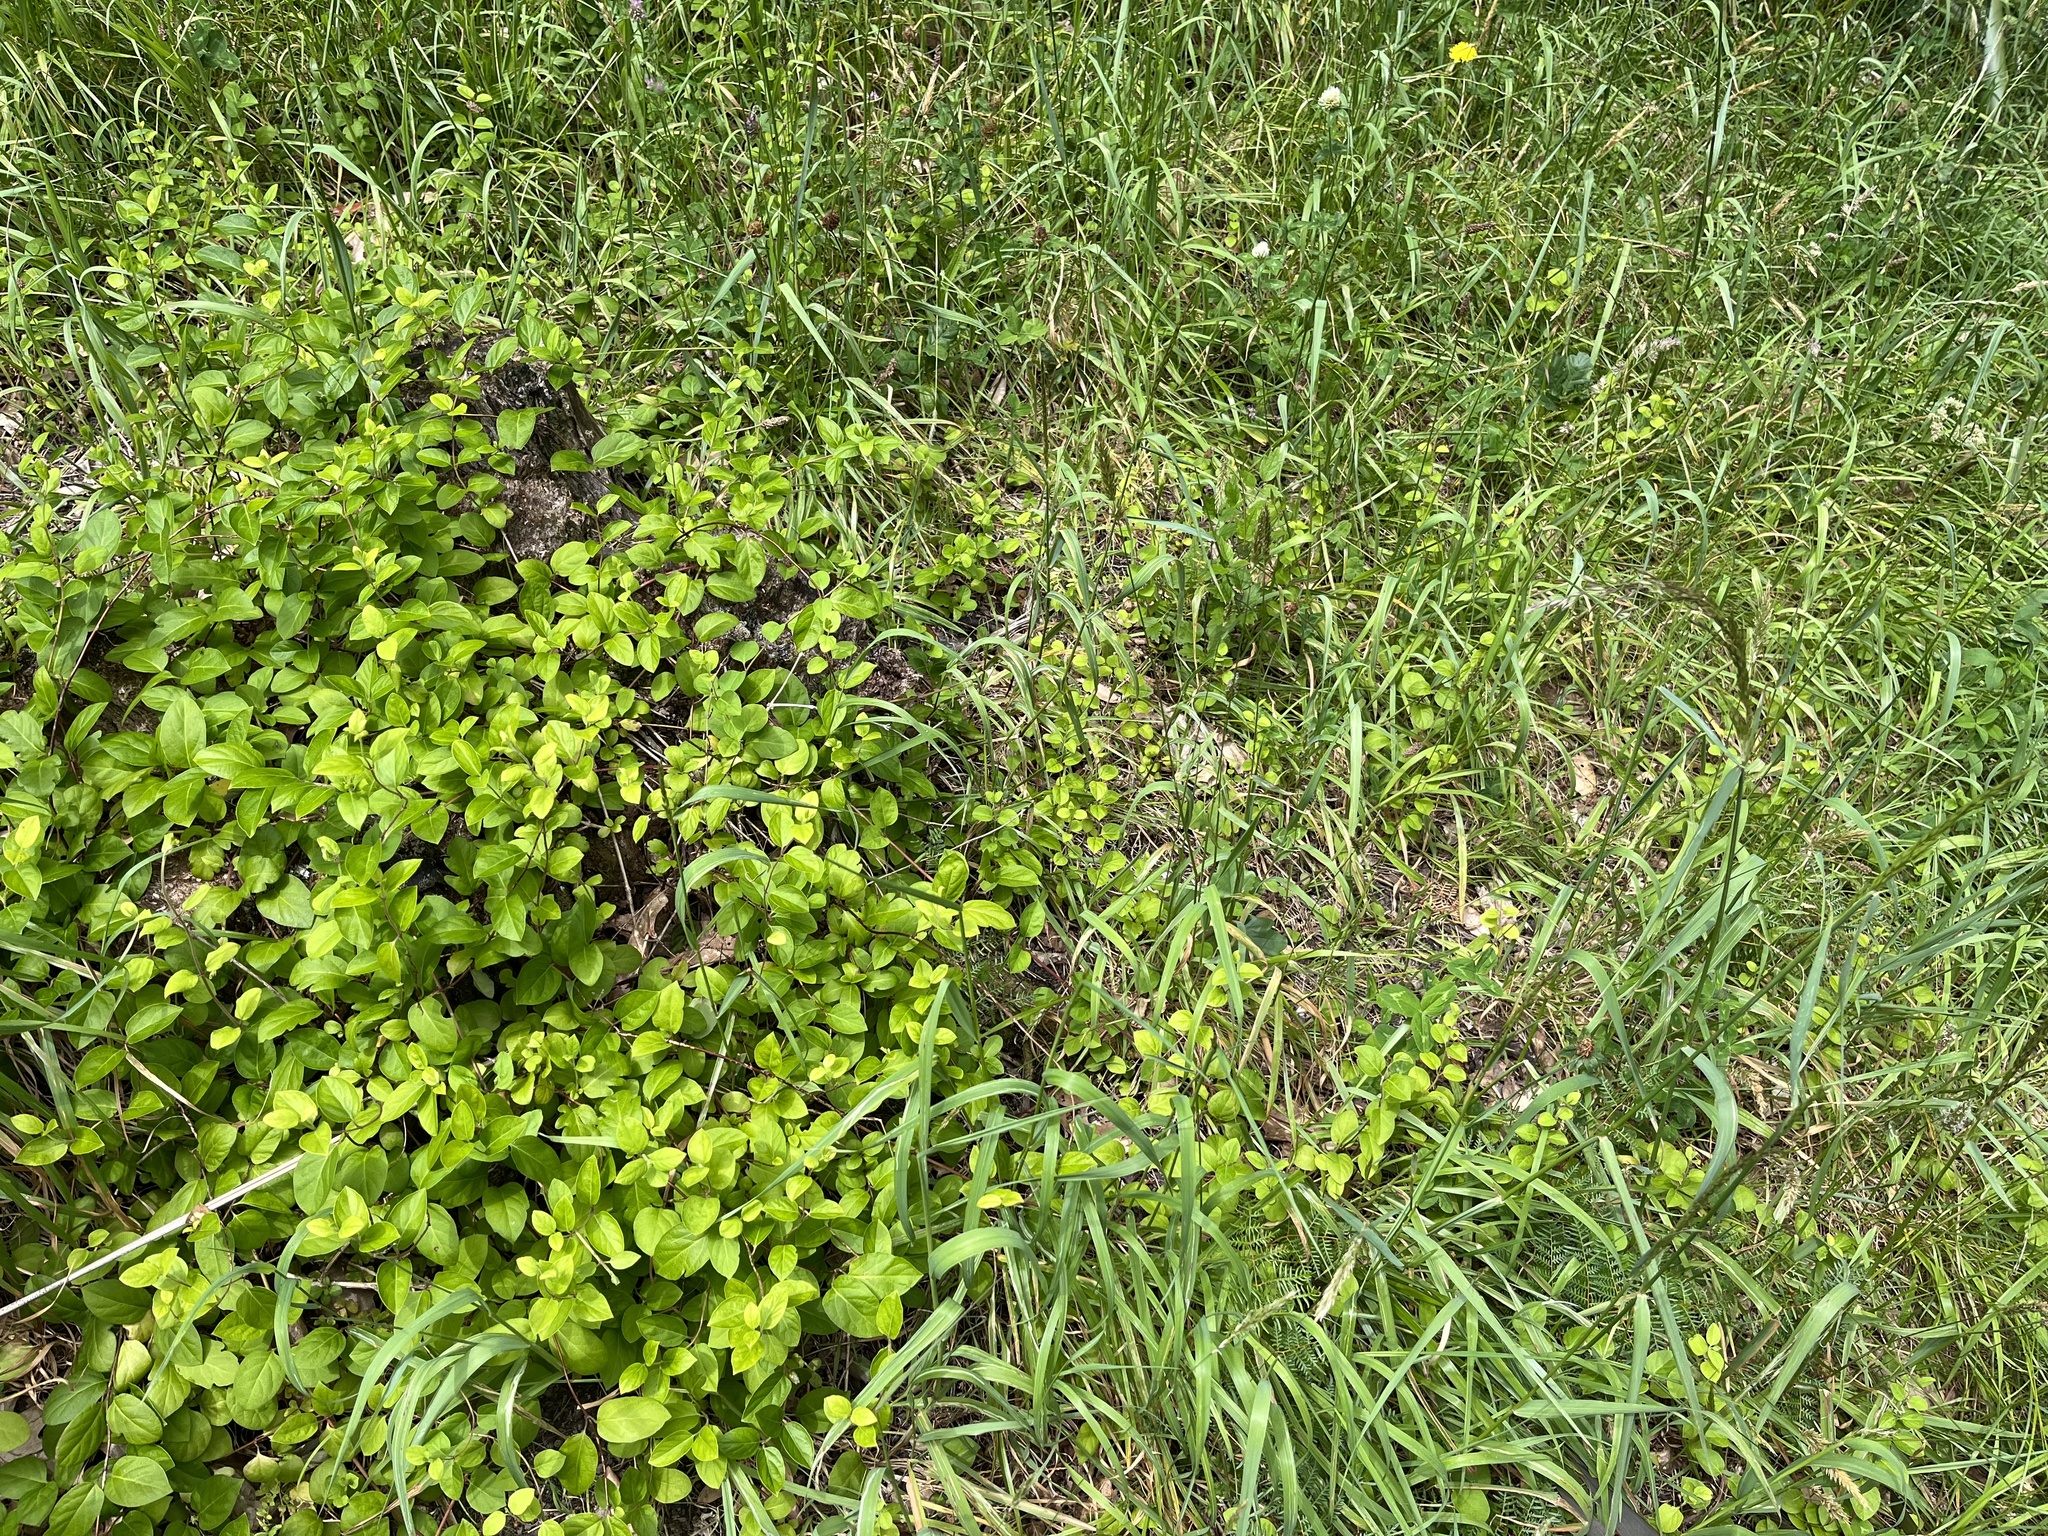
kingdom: Plantae
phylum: Tracheophyta
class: Magnoliopsida
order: Dipsacales
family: Caprifoliaceae
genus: Lonicera
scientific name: Lonicera japonica
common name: Japanese honeysuckle
